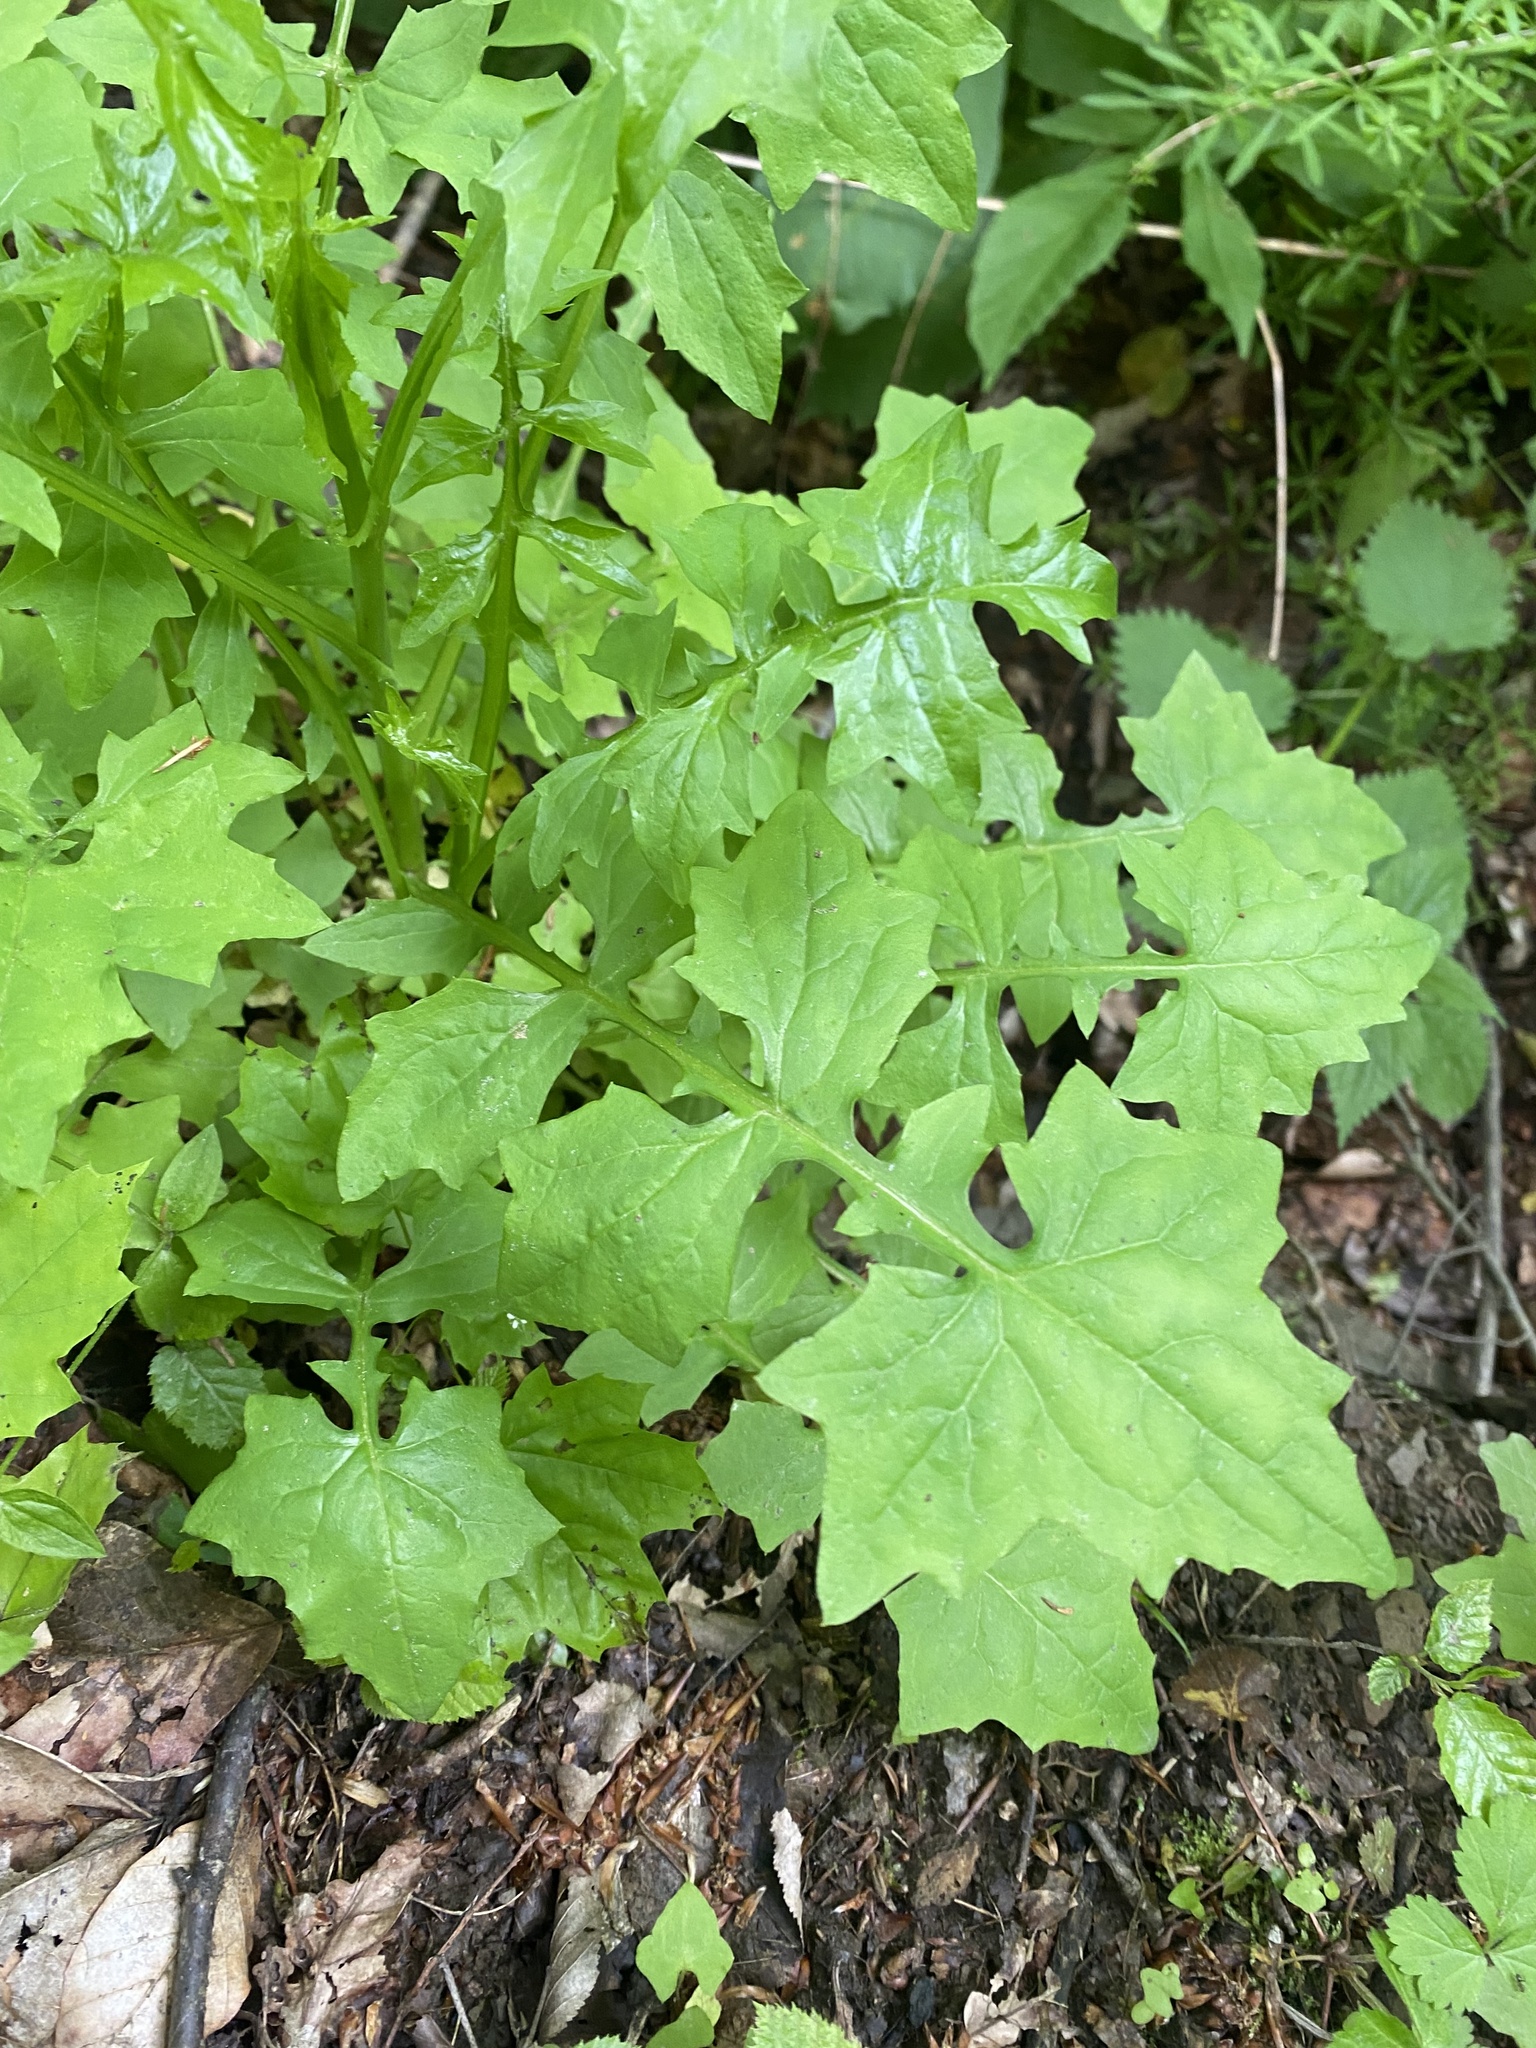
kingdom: Plantae
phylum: Tracheophyta
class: Magnoliopsida
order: Asterales
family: Asteraceae
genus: Mycelis
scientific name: Mycelis muralis
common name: Wall lettuce
